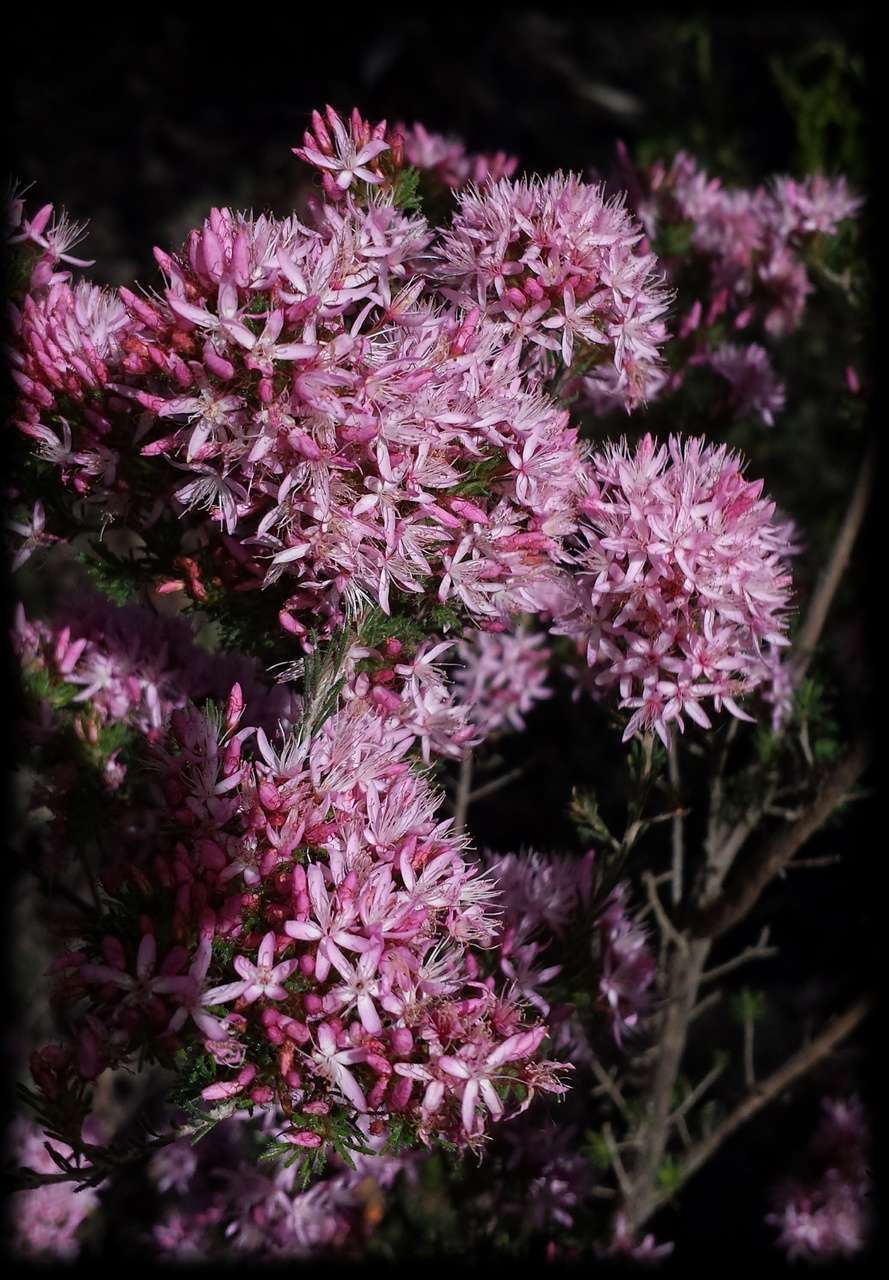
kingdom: Plantae
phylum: Tracheophyta
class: Magnoliopsida
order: Myrtales
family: Myrtaceae
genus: Calytrix
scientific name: Calytrix tetragona
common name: Common fringe myrtle
